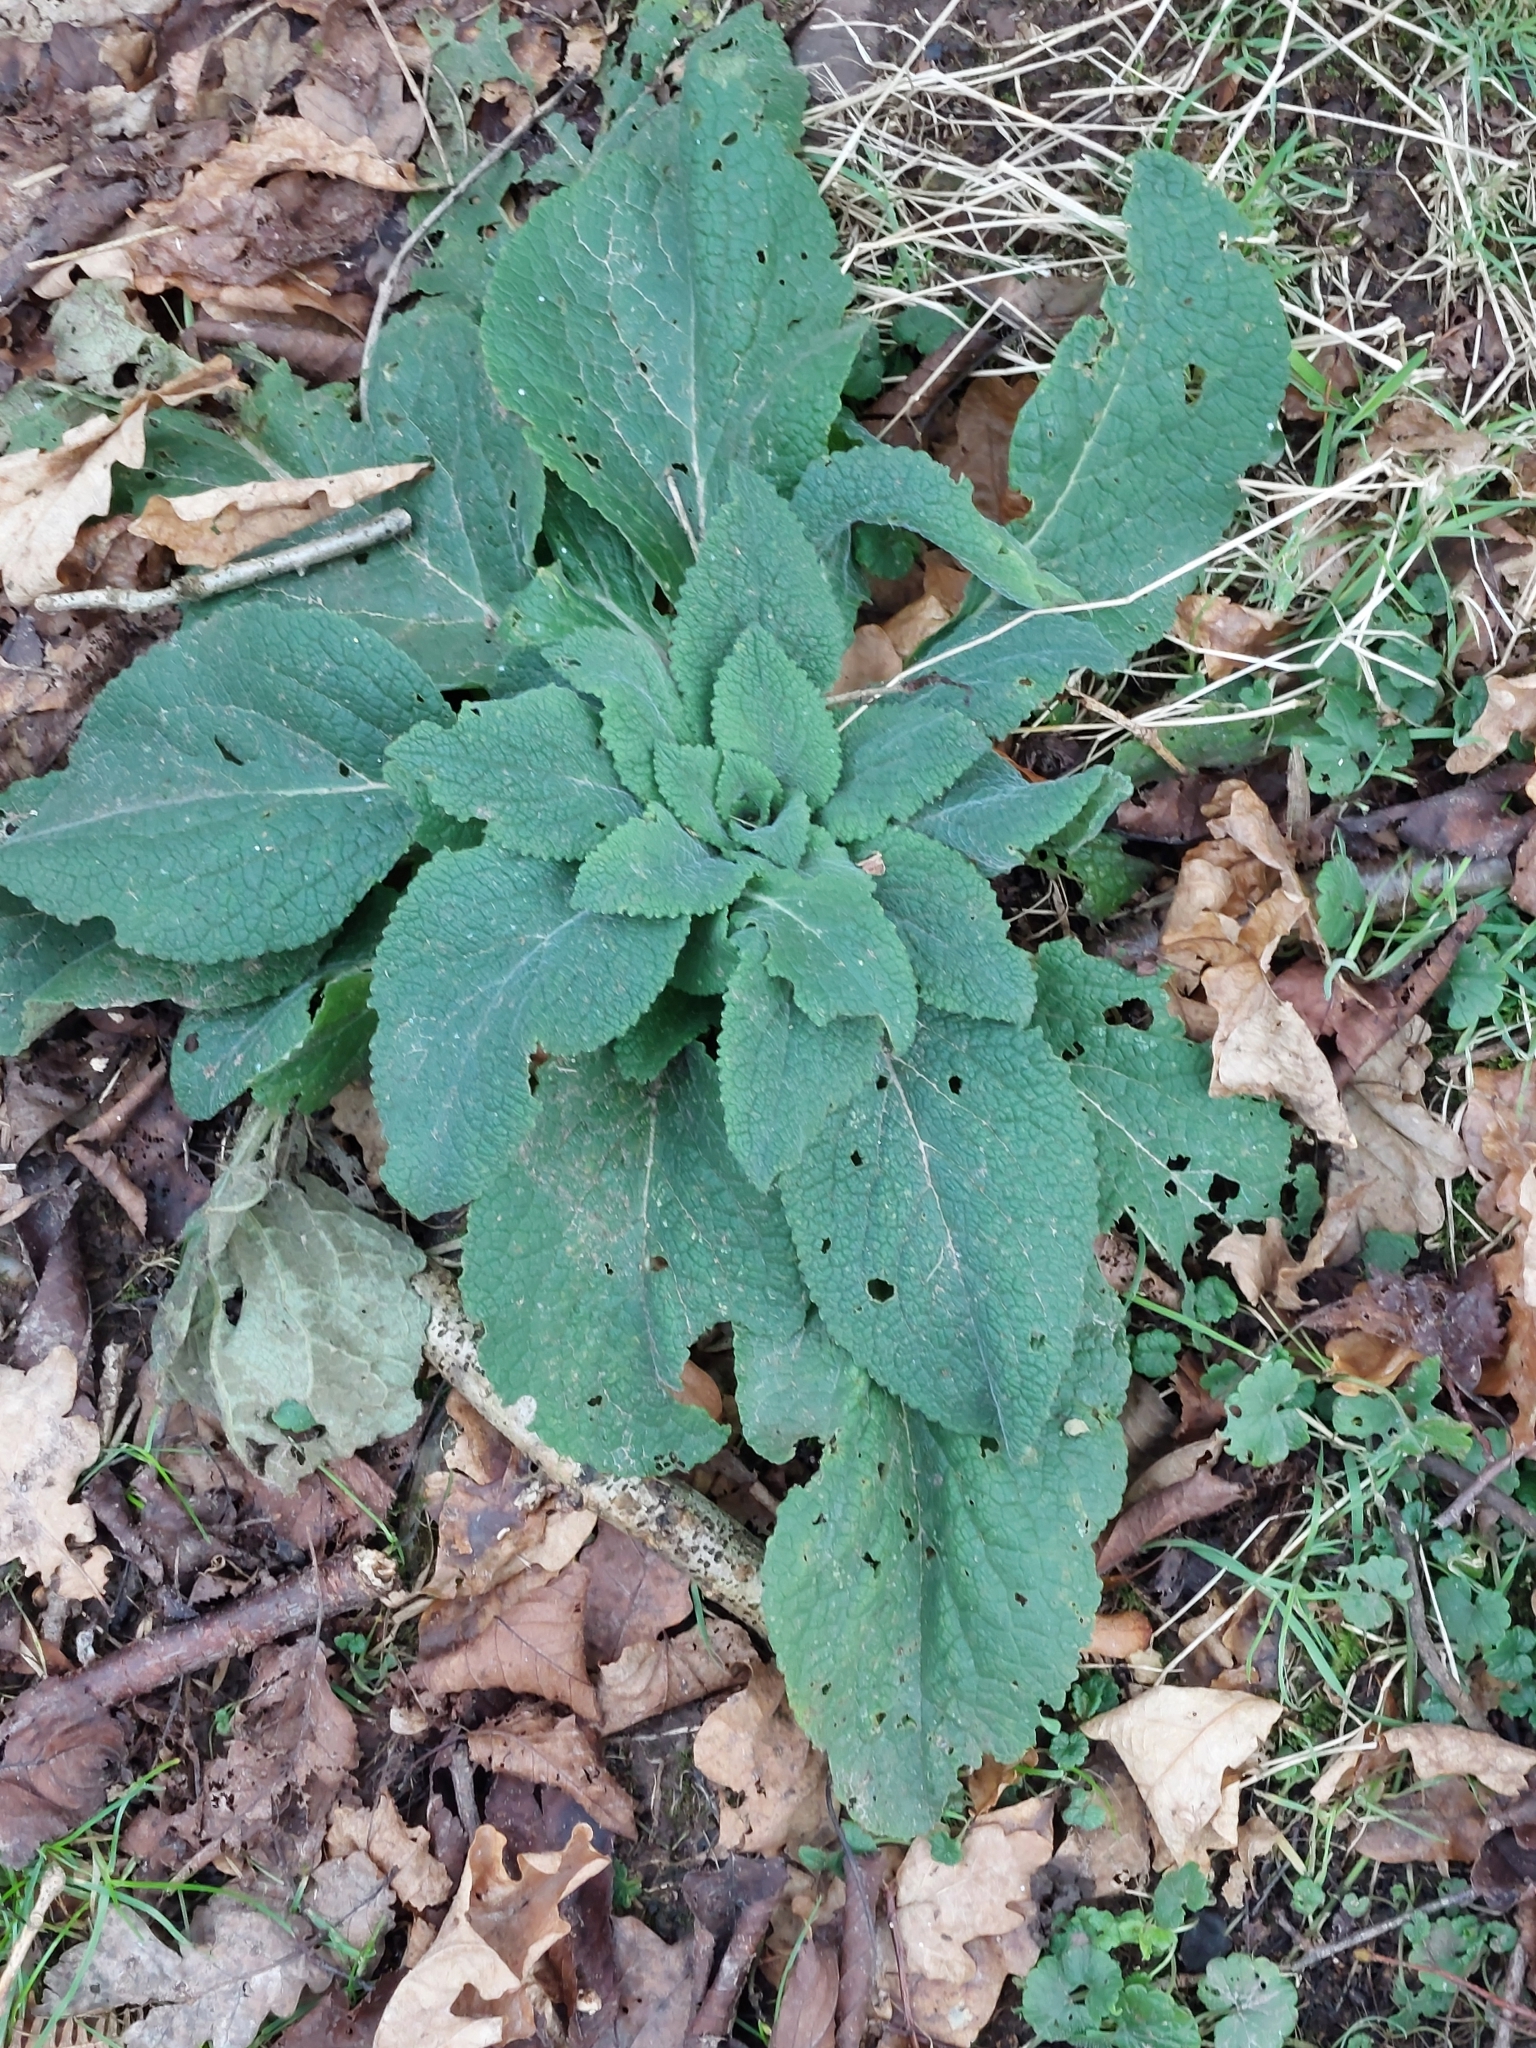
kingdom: Plantae
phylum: Tracheophyta
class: Magnoliopsida
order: Lamiales
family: Plantaginaceae
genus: Digitalis
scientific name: Digitalis purpurea
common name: Foxglove
